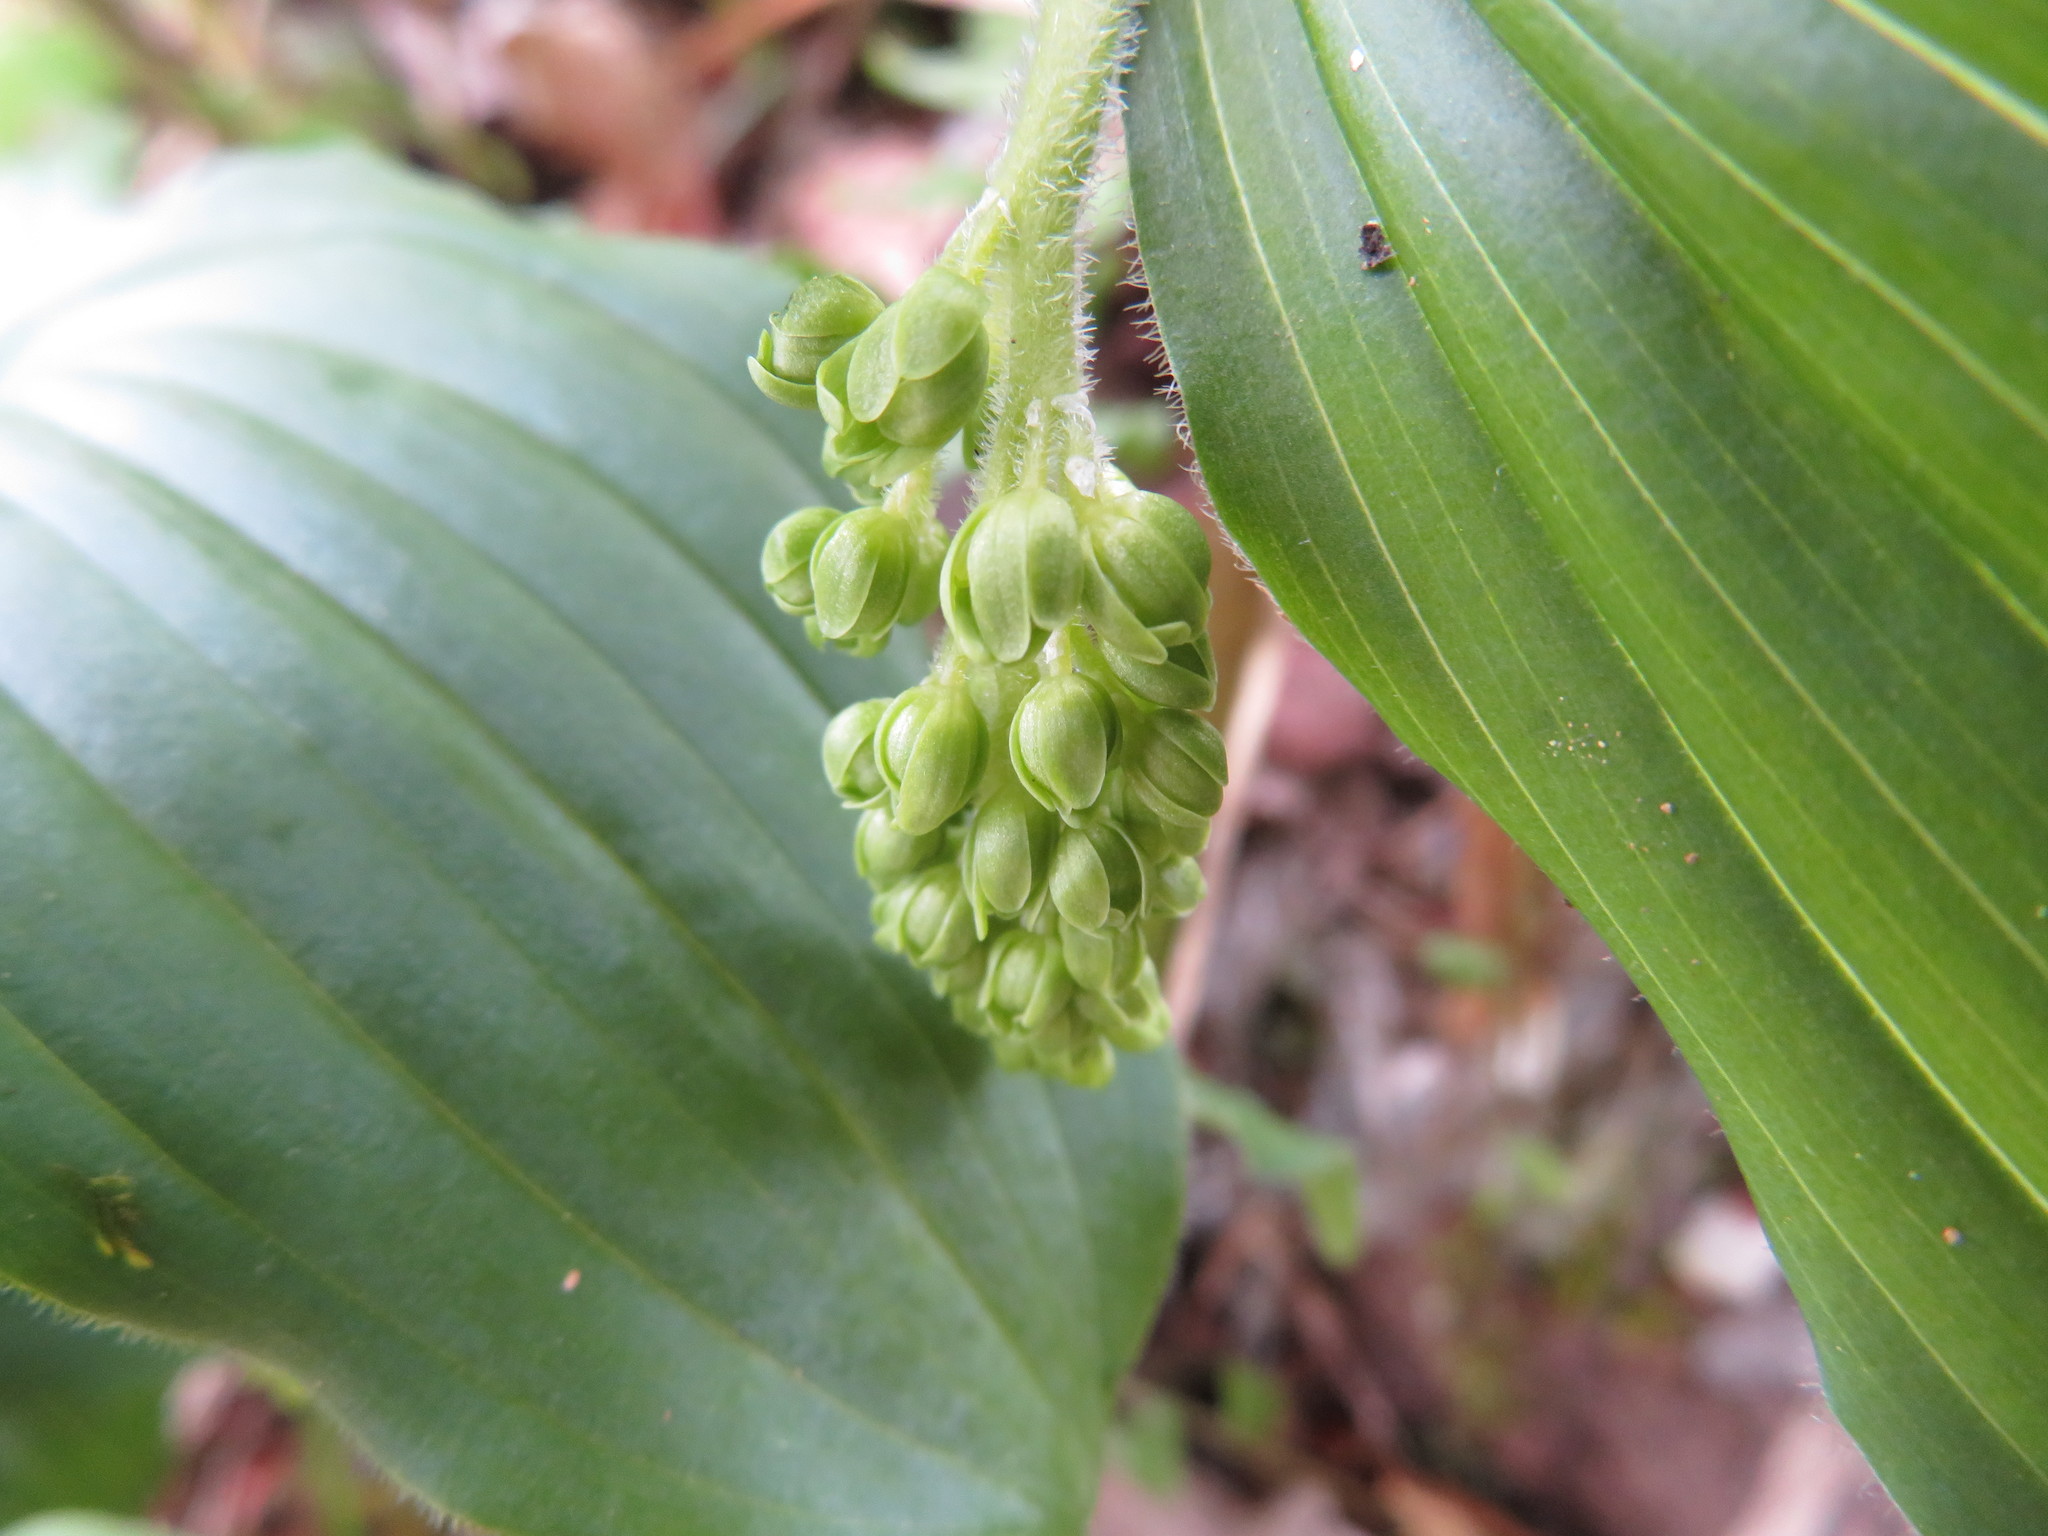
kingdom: Plantae
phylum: Tracheophyta
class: Liliopsida
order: Asparagales
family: Asparagaceae
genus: Maianthemum
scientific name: Maianthemum japonicum
